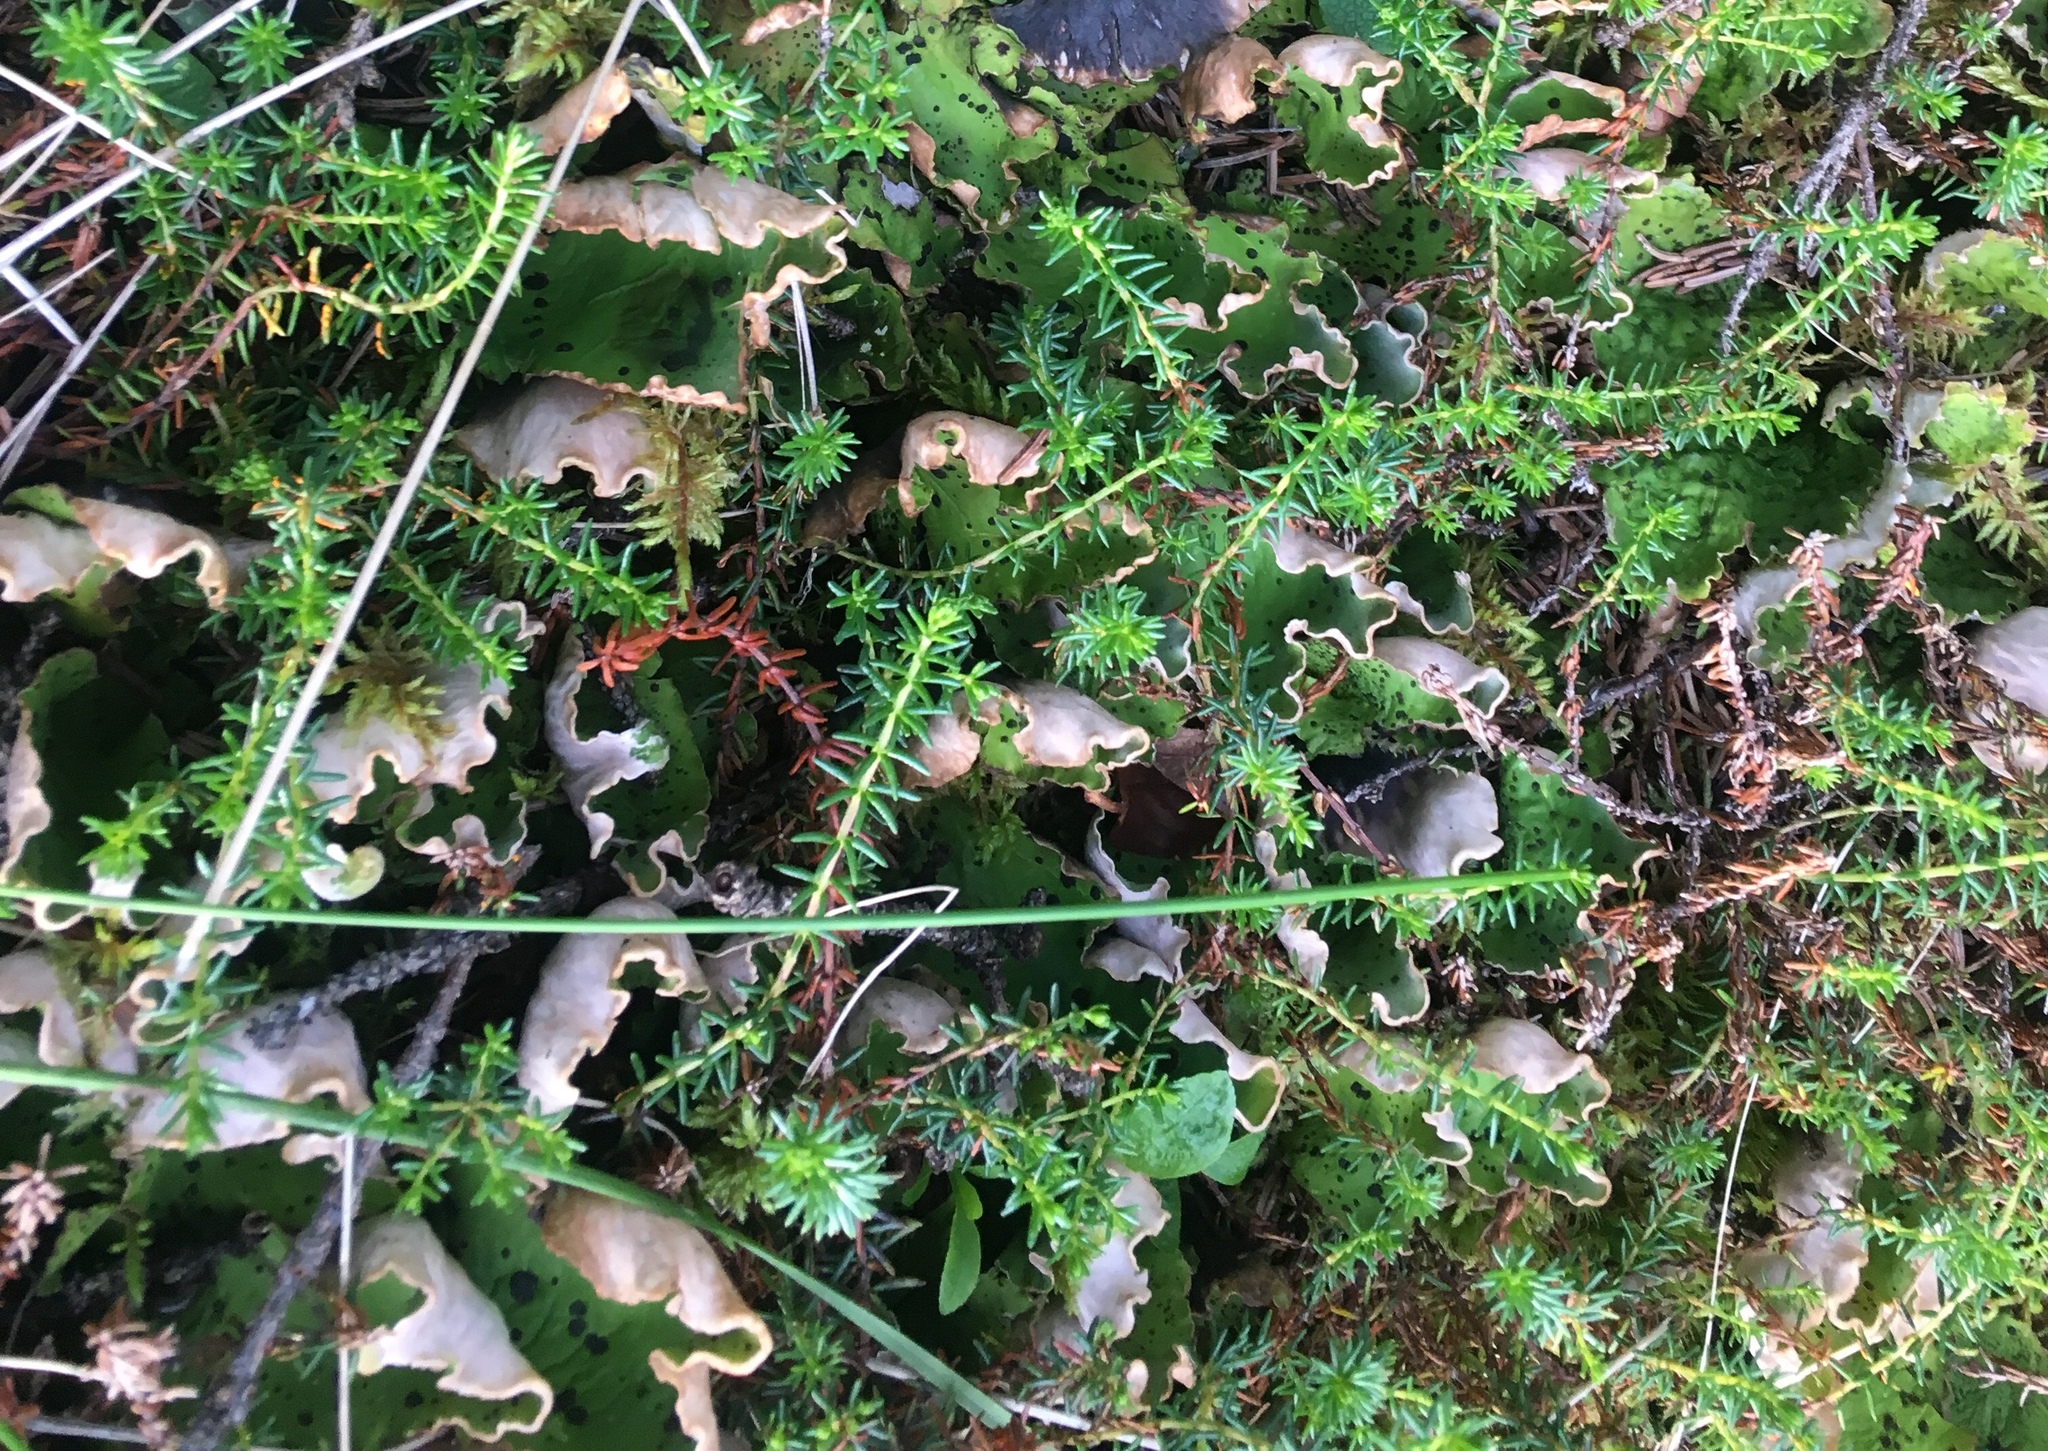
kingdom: Plantae
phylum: Tracheophyta
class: Magnoliopsida
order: Ericales
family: Ericaceae
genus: Empetrum
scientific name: Empetrum nigrum
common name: Black crowberry
